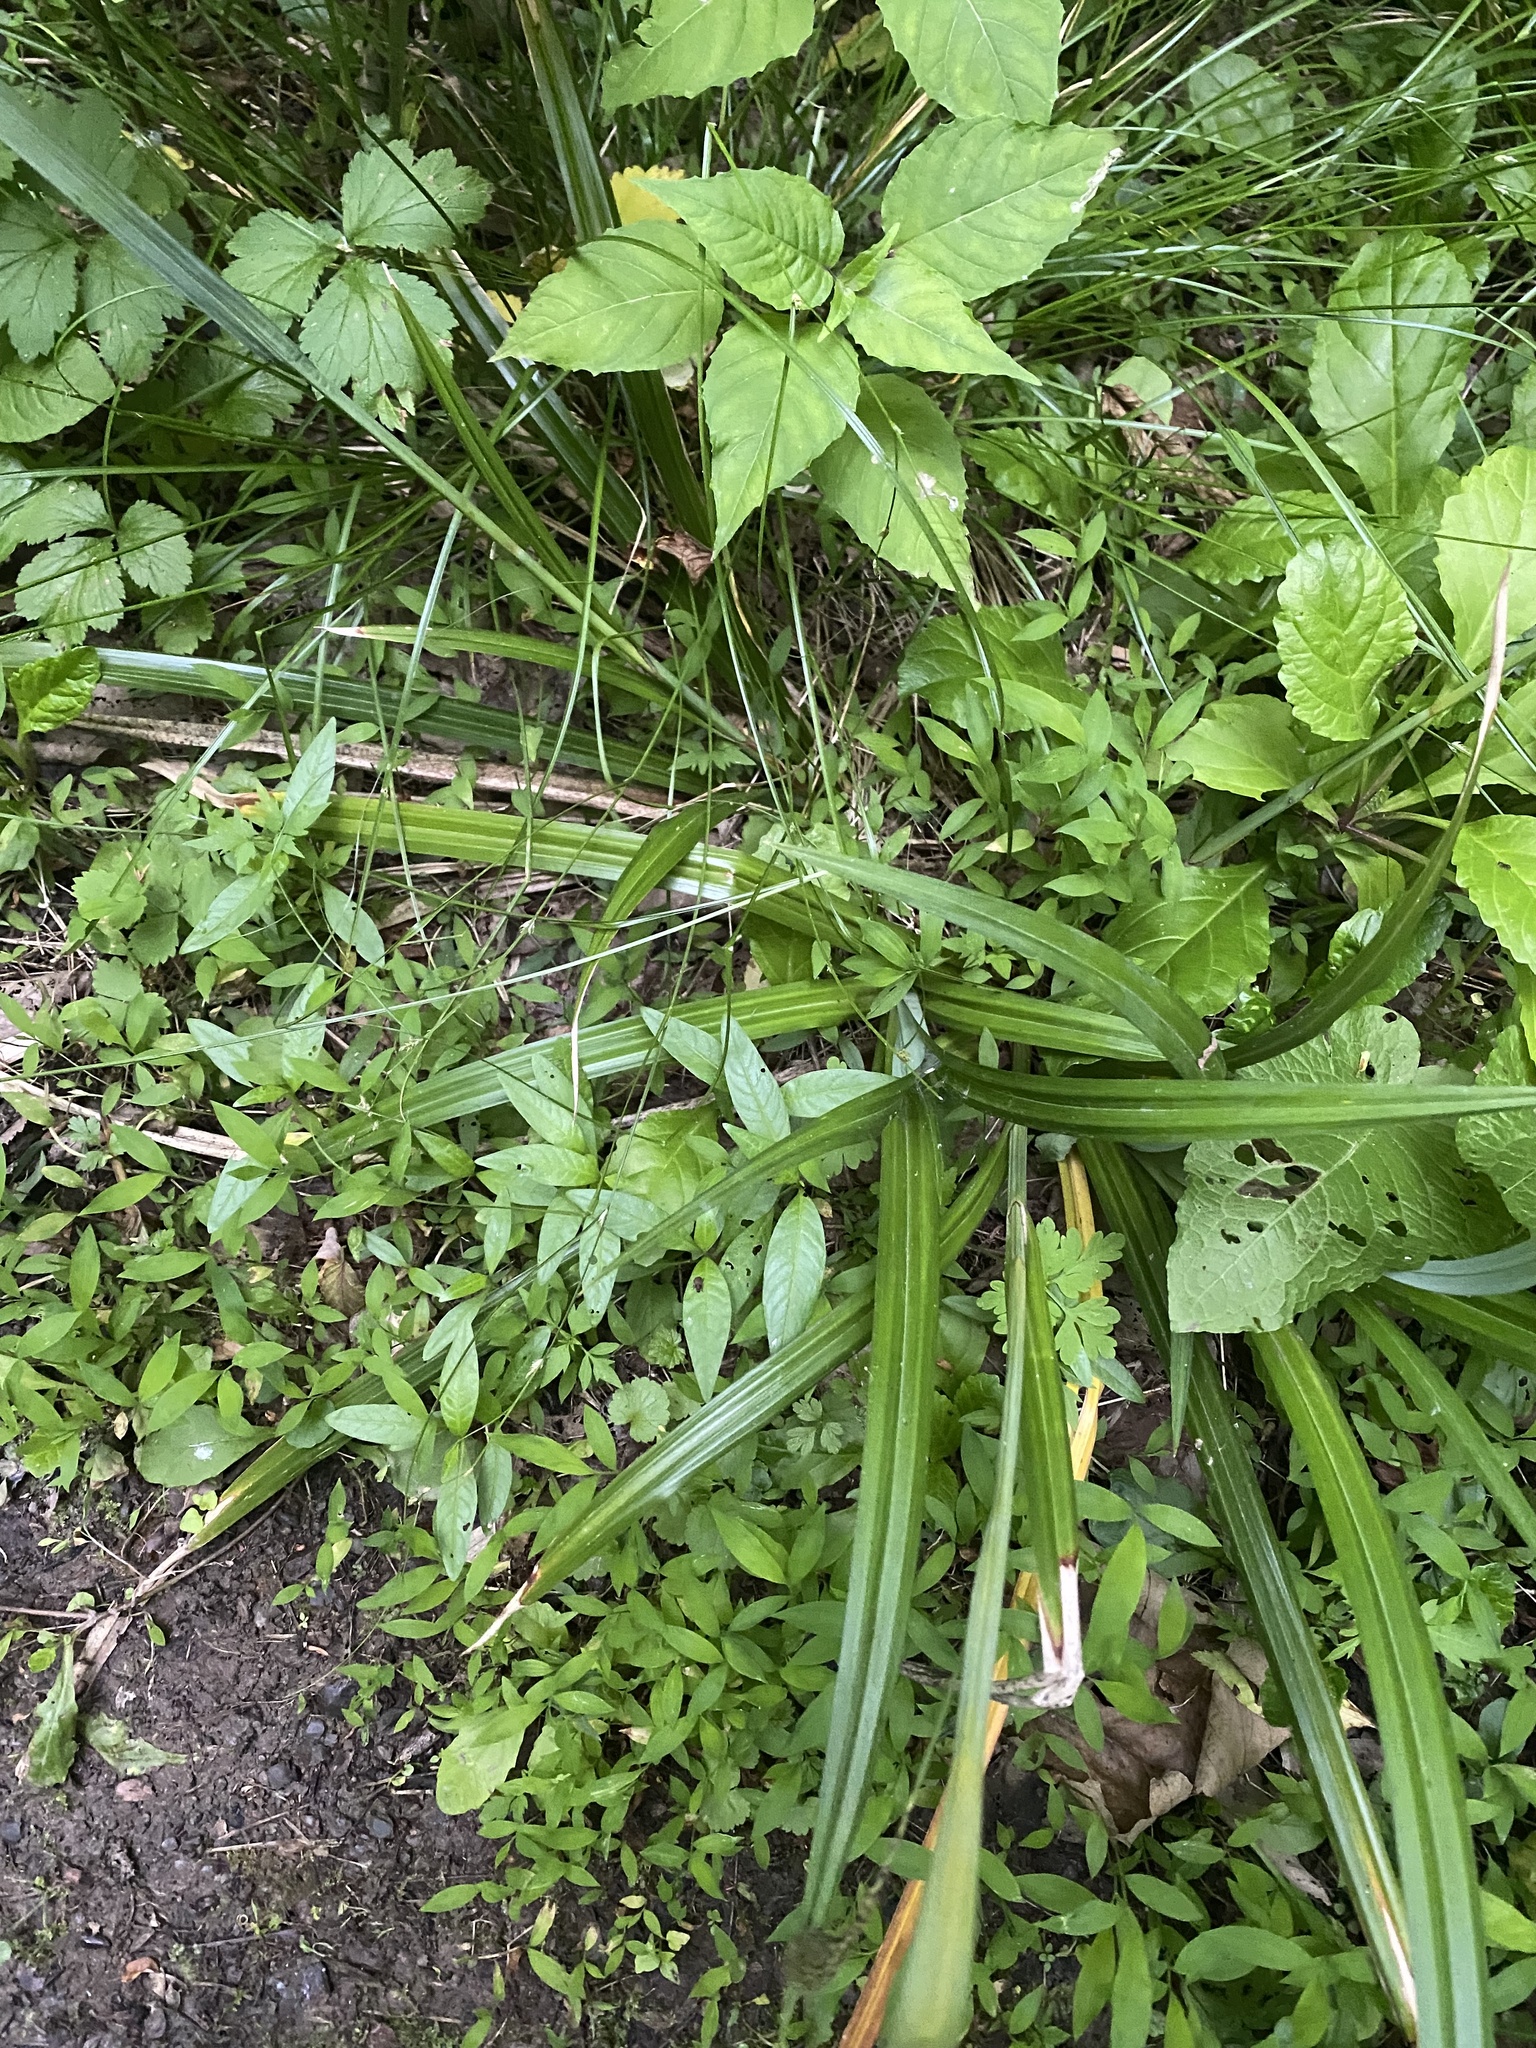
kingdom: Plantae
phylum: Tracheophyta
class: Liliopsida
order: Poales
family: Cyperaceae
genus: Carex
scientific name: Carex pendula
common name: Pendulous sedge
